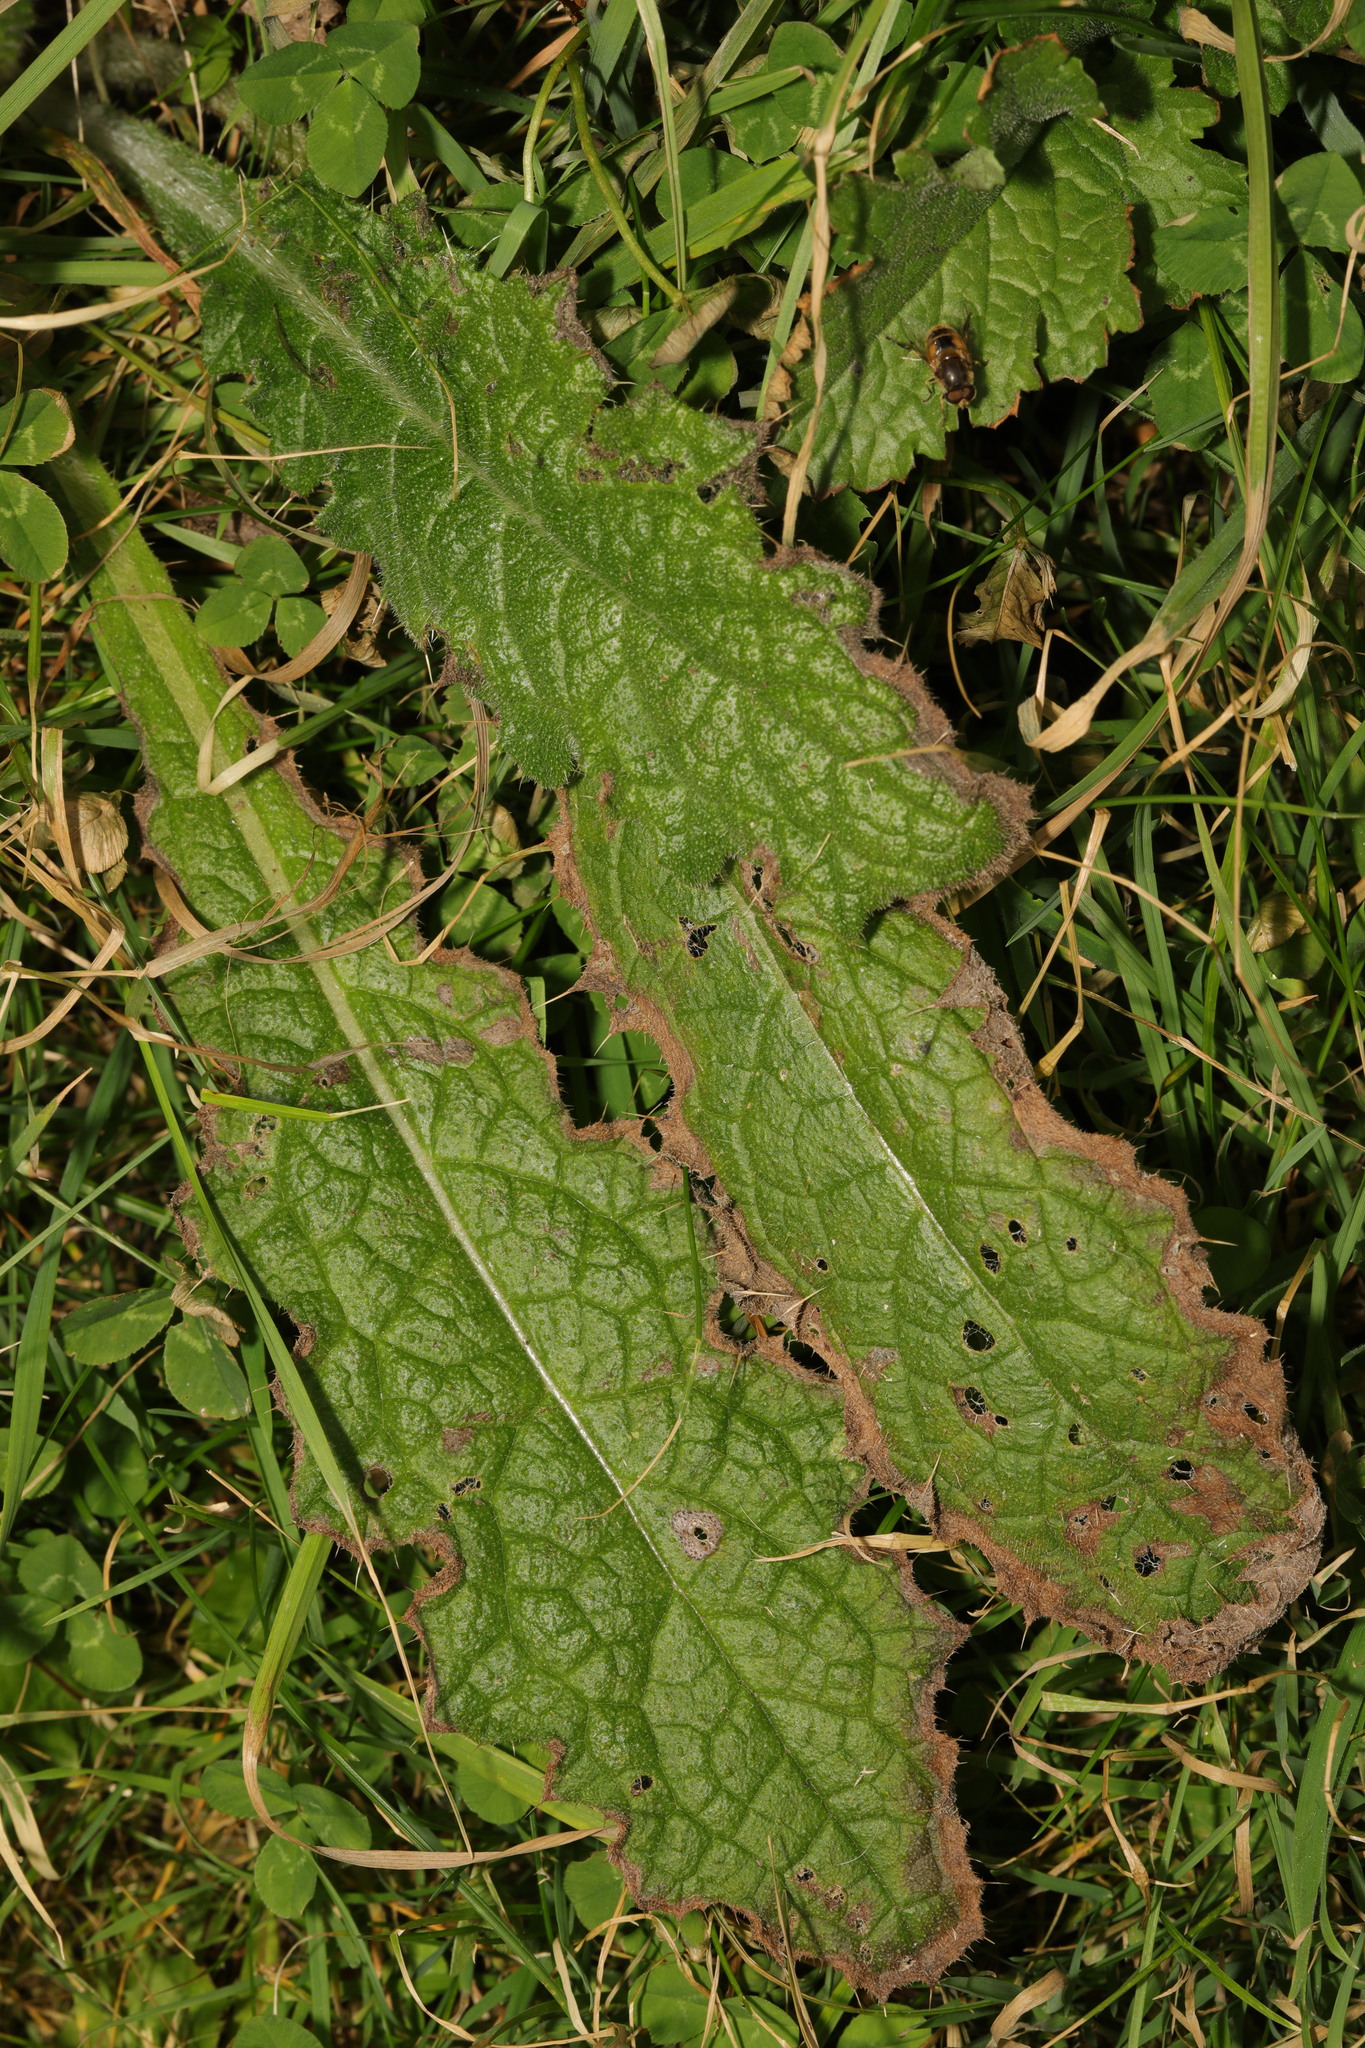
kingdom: Plantae
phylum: Tracheophyta
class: Magnoliopsida
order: Asterales
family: Asteraceae
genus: Cirsium
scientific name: Cirsium vulgare
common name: Bull thistle
